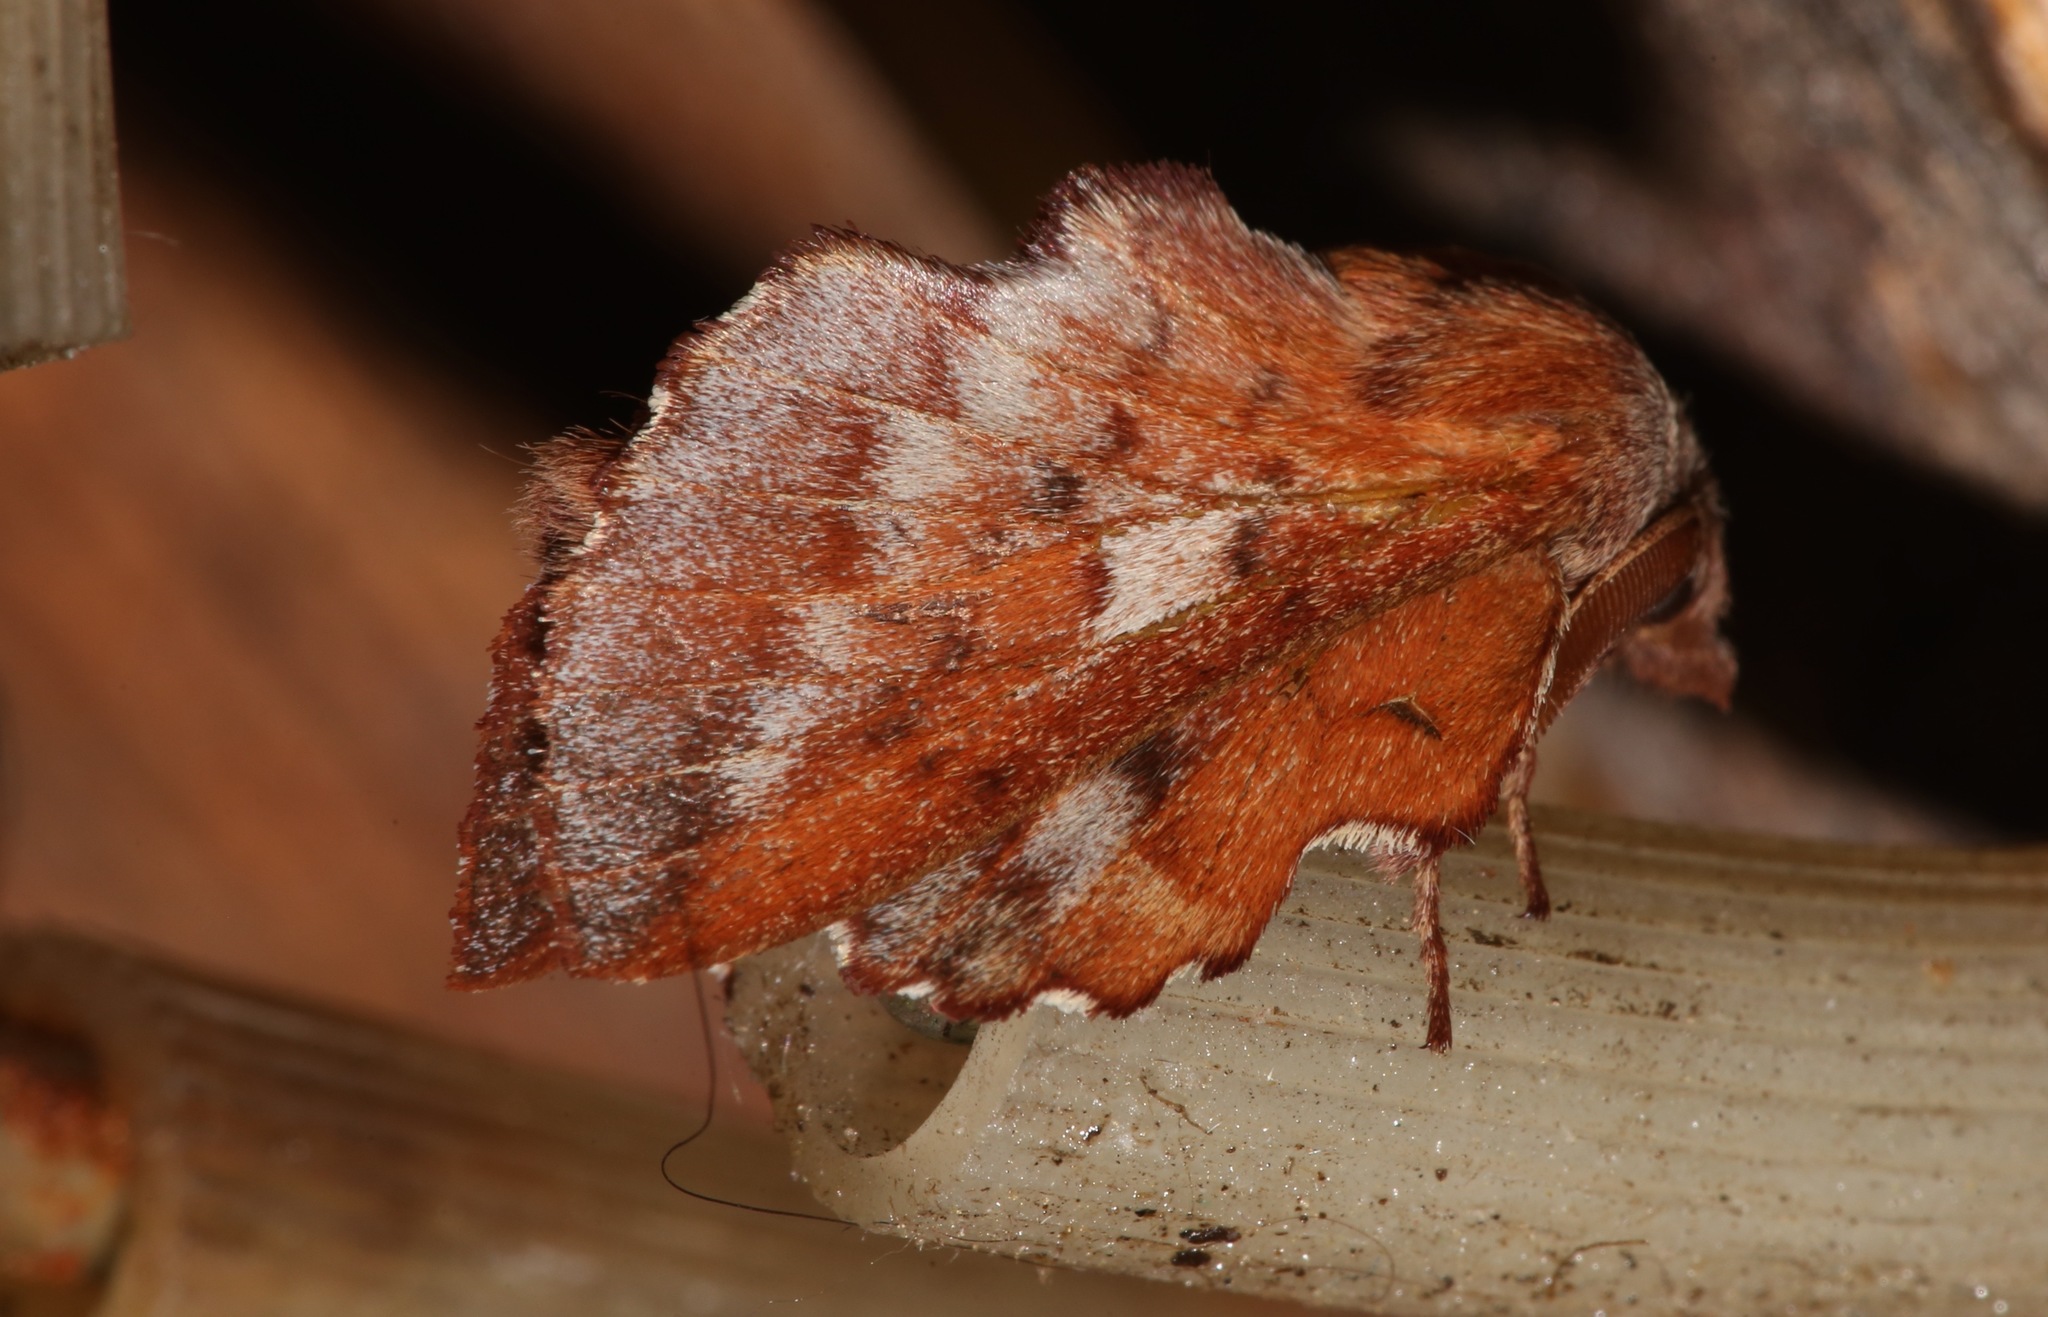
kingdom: Animalia
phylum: Arthropoda
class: Insecta
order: Lepidoptera
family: Lasiocampidae
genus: Phyllodesma
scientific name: Phyllodesma americana
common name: American lappet moth
